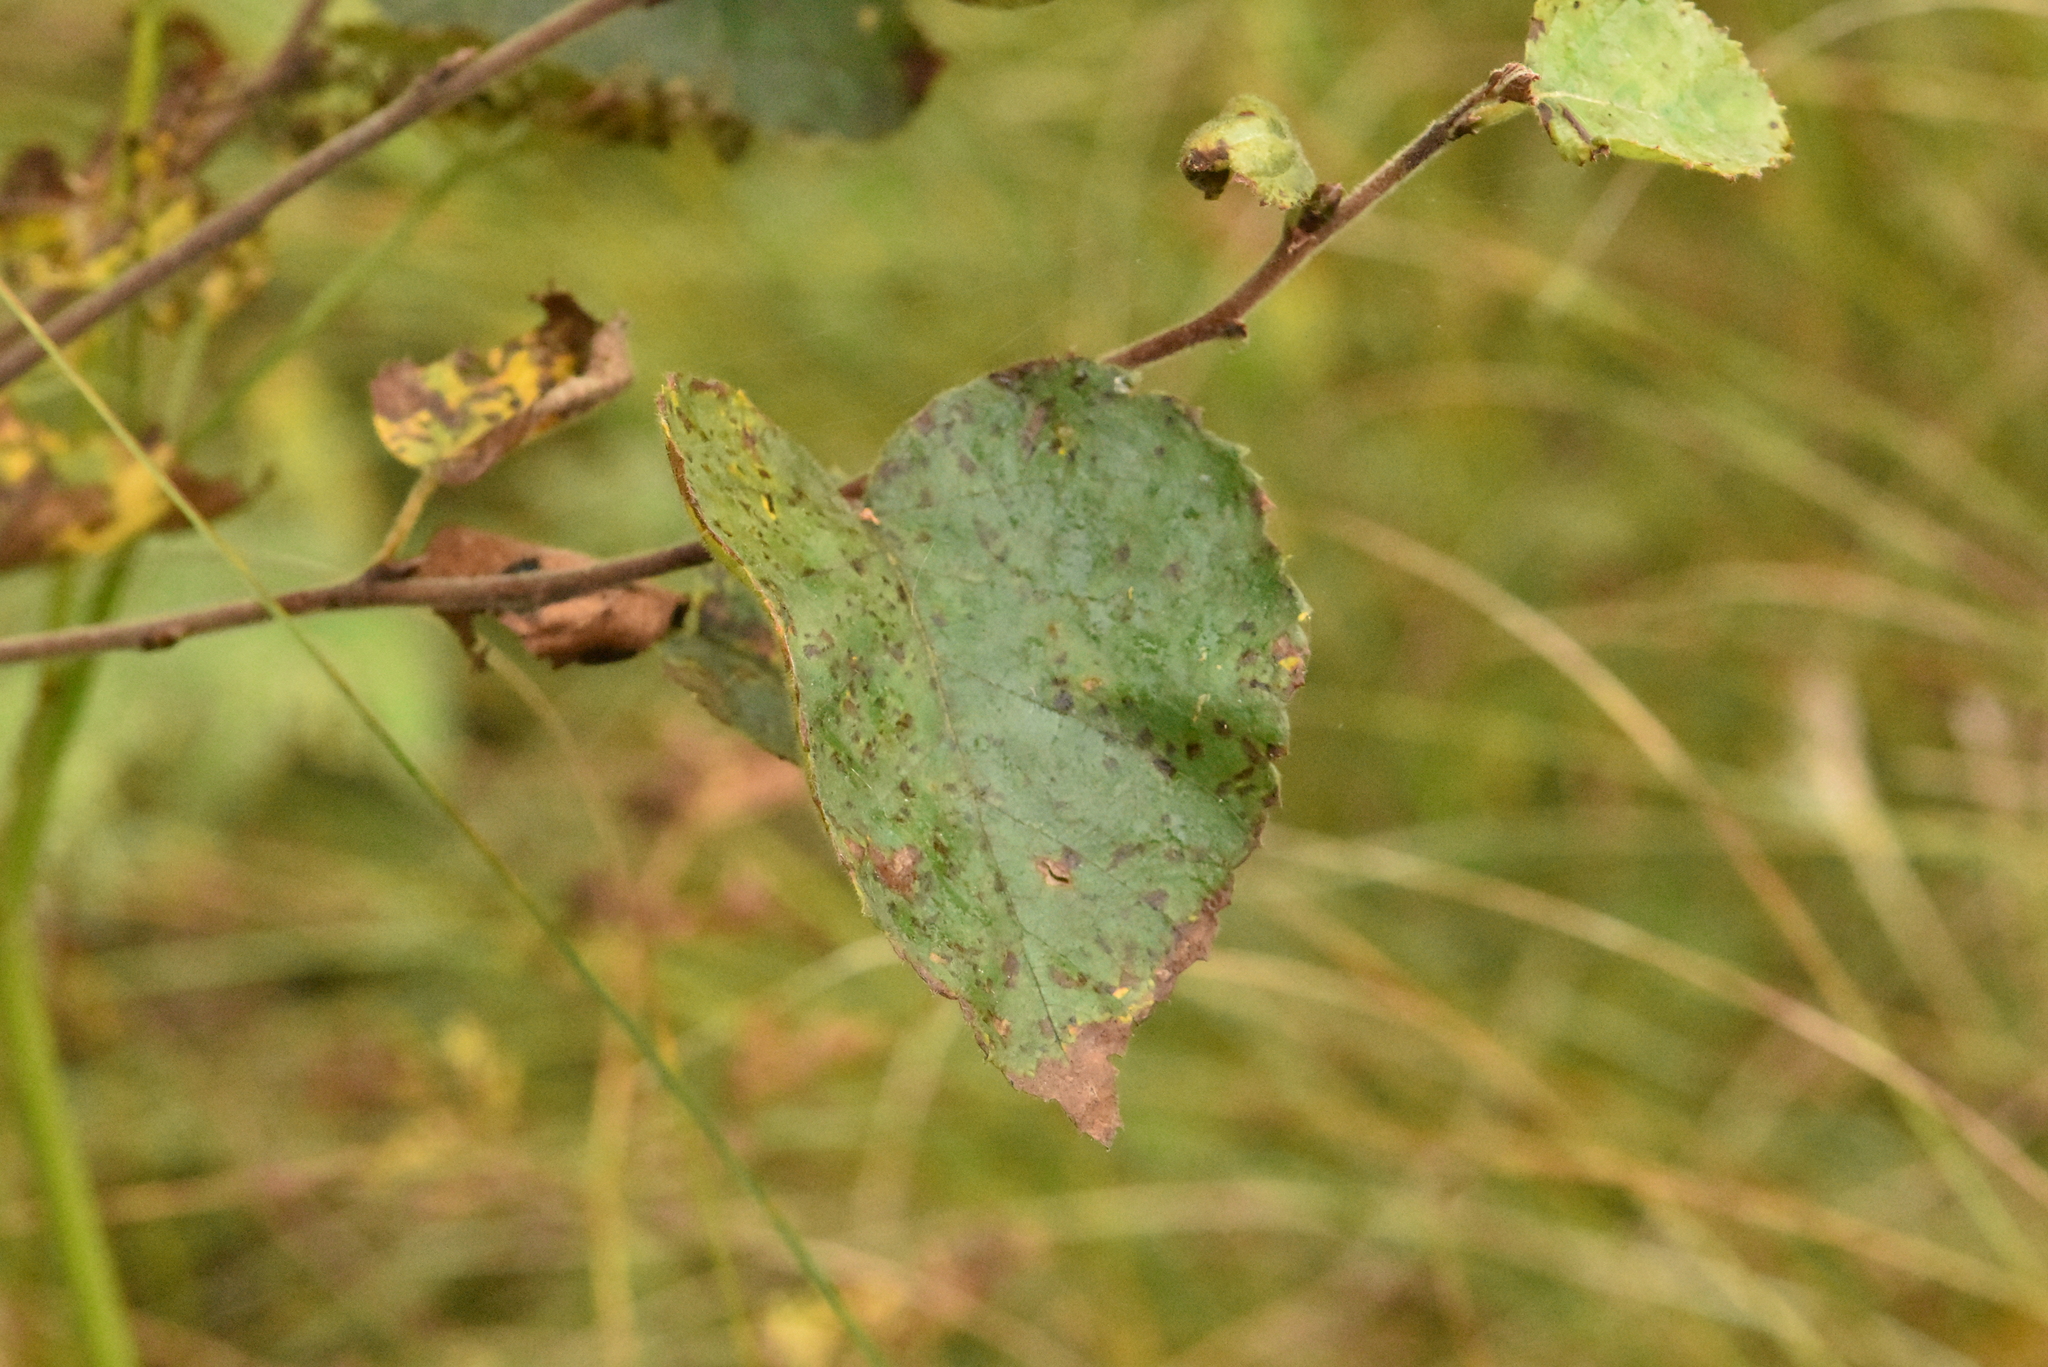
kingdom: Plantae
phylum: Tracheophyta
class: Magnoliopsida
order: Fagales
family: Betulaceae
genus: Betula
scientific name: Betula pubescens
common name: Downy birch
